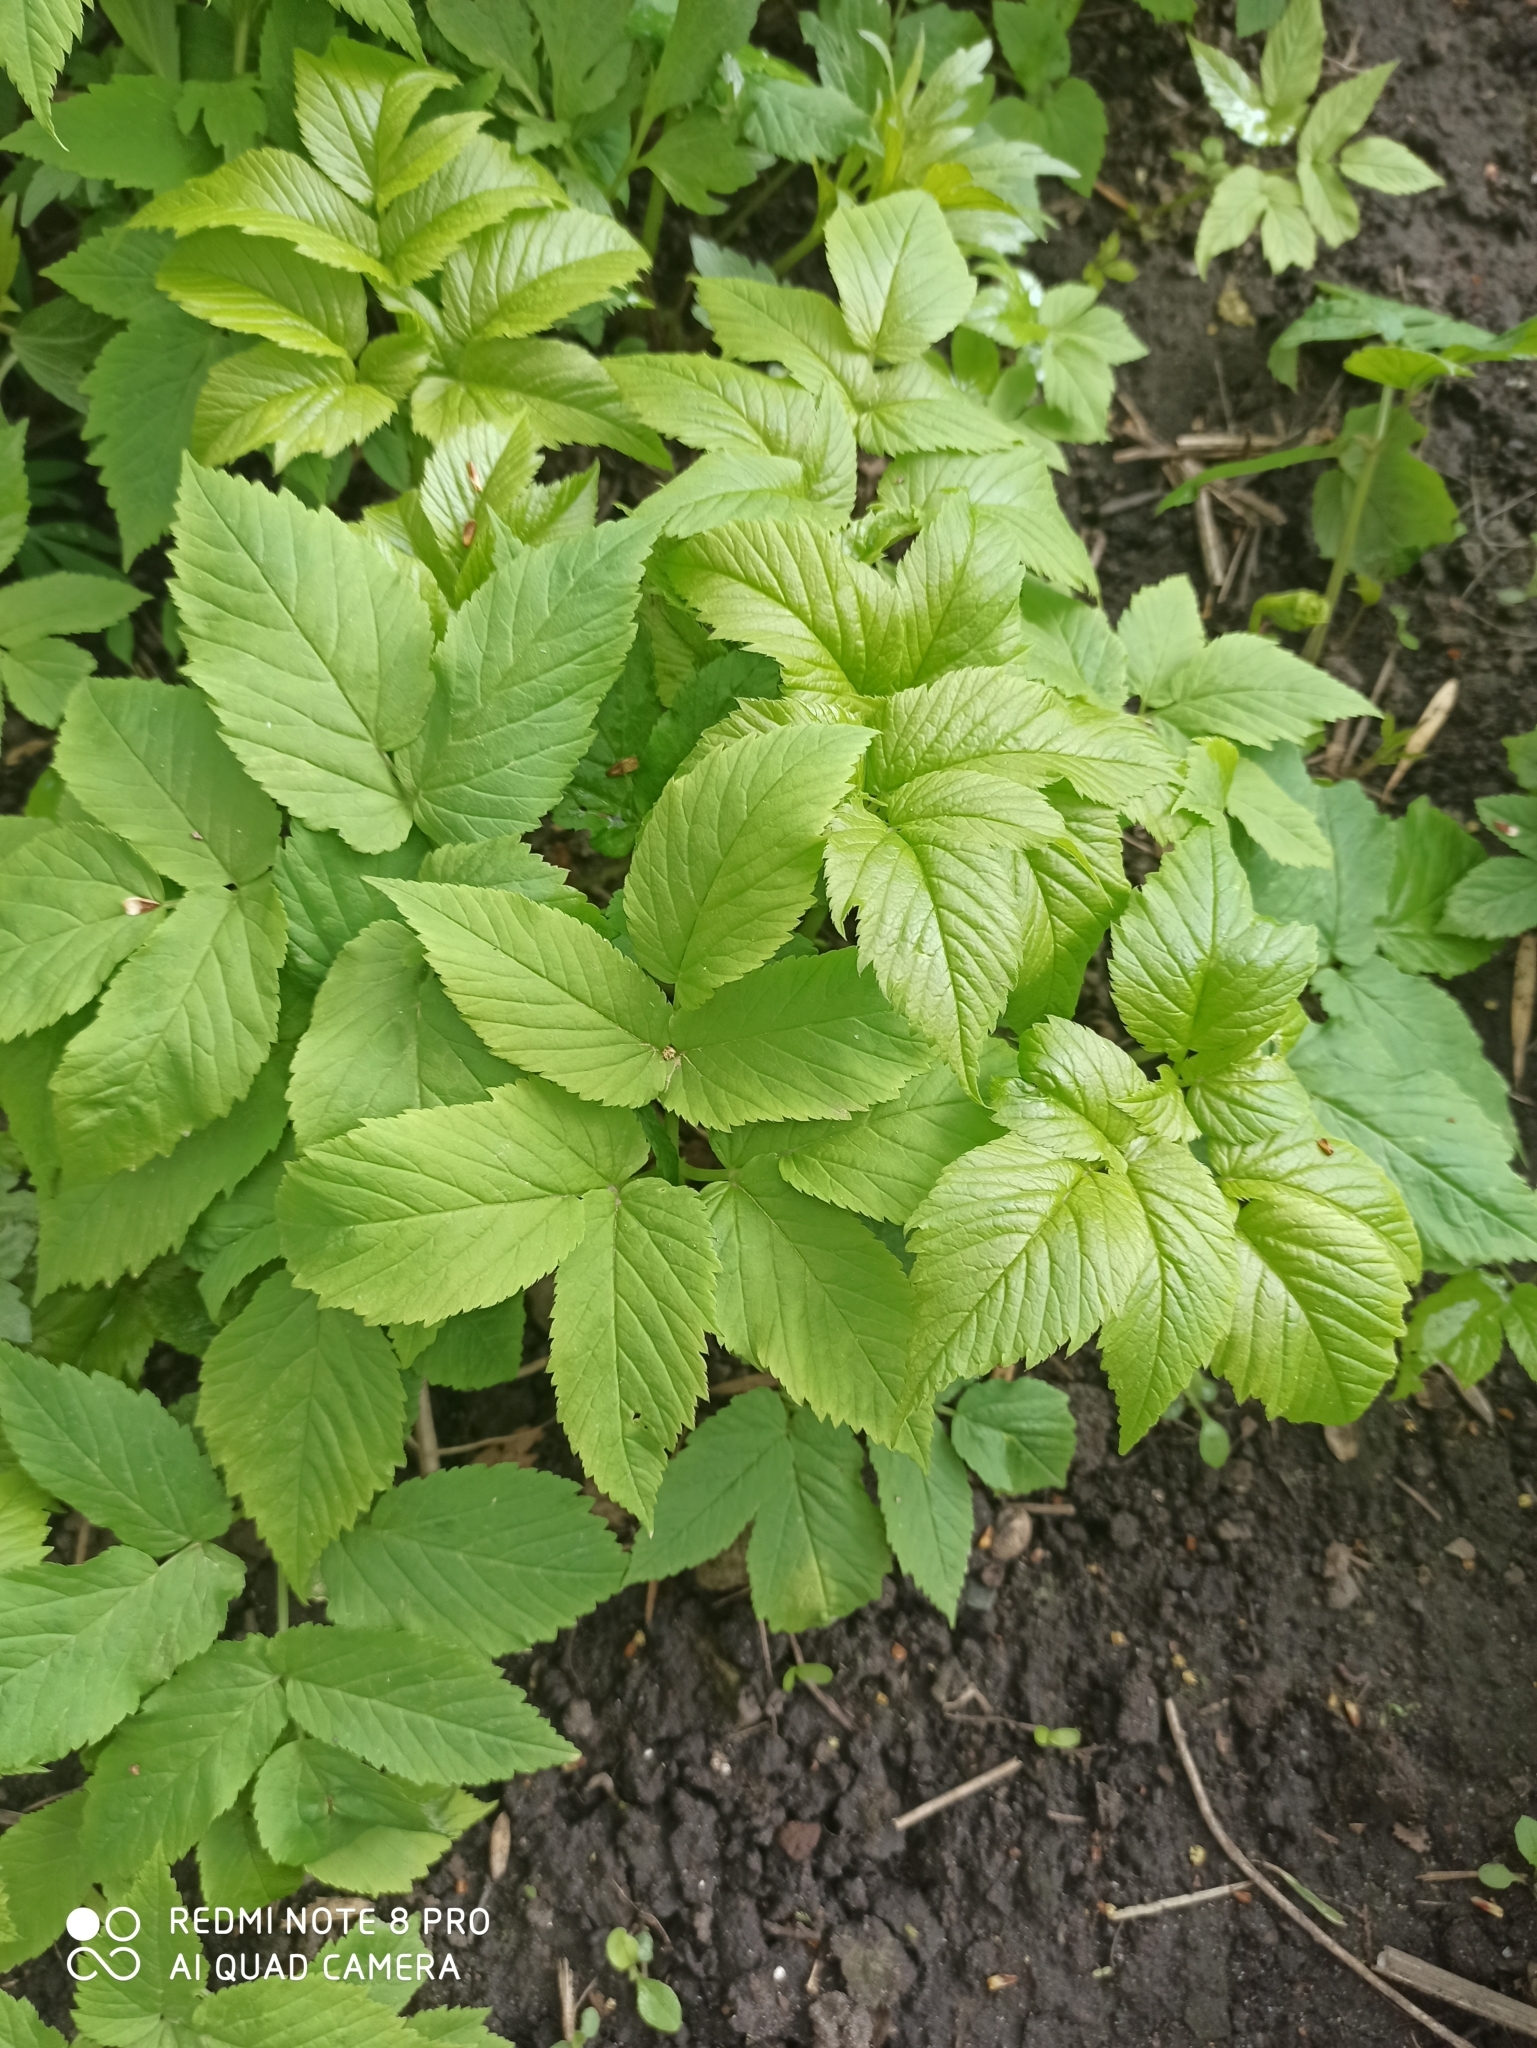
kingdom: Plantae
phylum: Tracheophyta
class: Magnoliopsida
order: Apiales
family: Apiaceae
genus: Aegopodium
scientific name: Aegopodium podagraria
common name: Ground-elder
